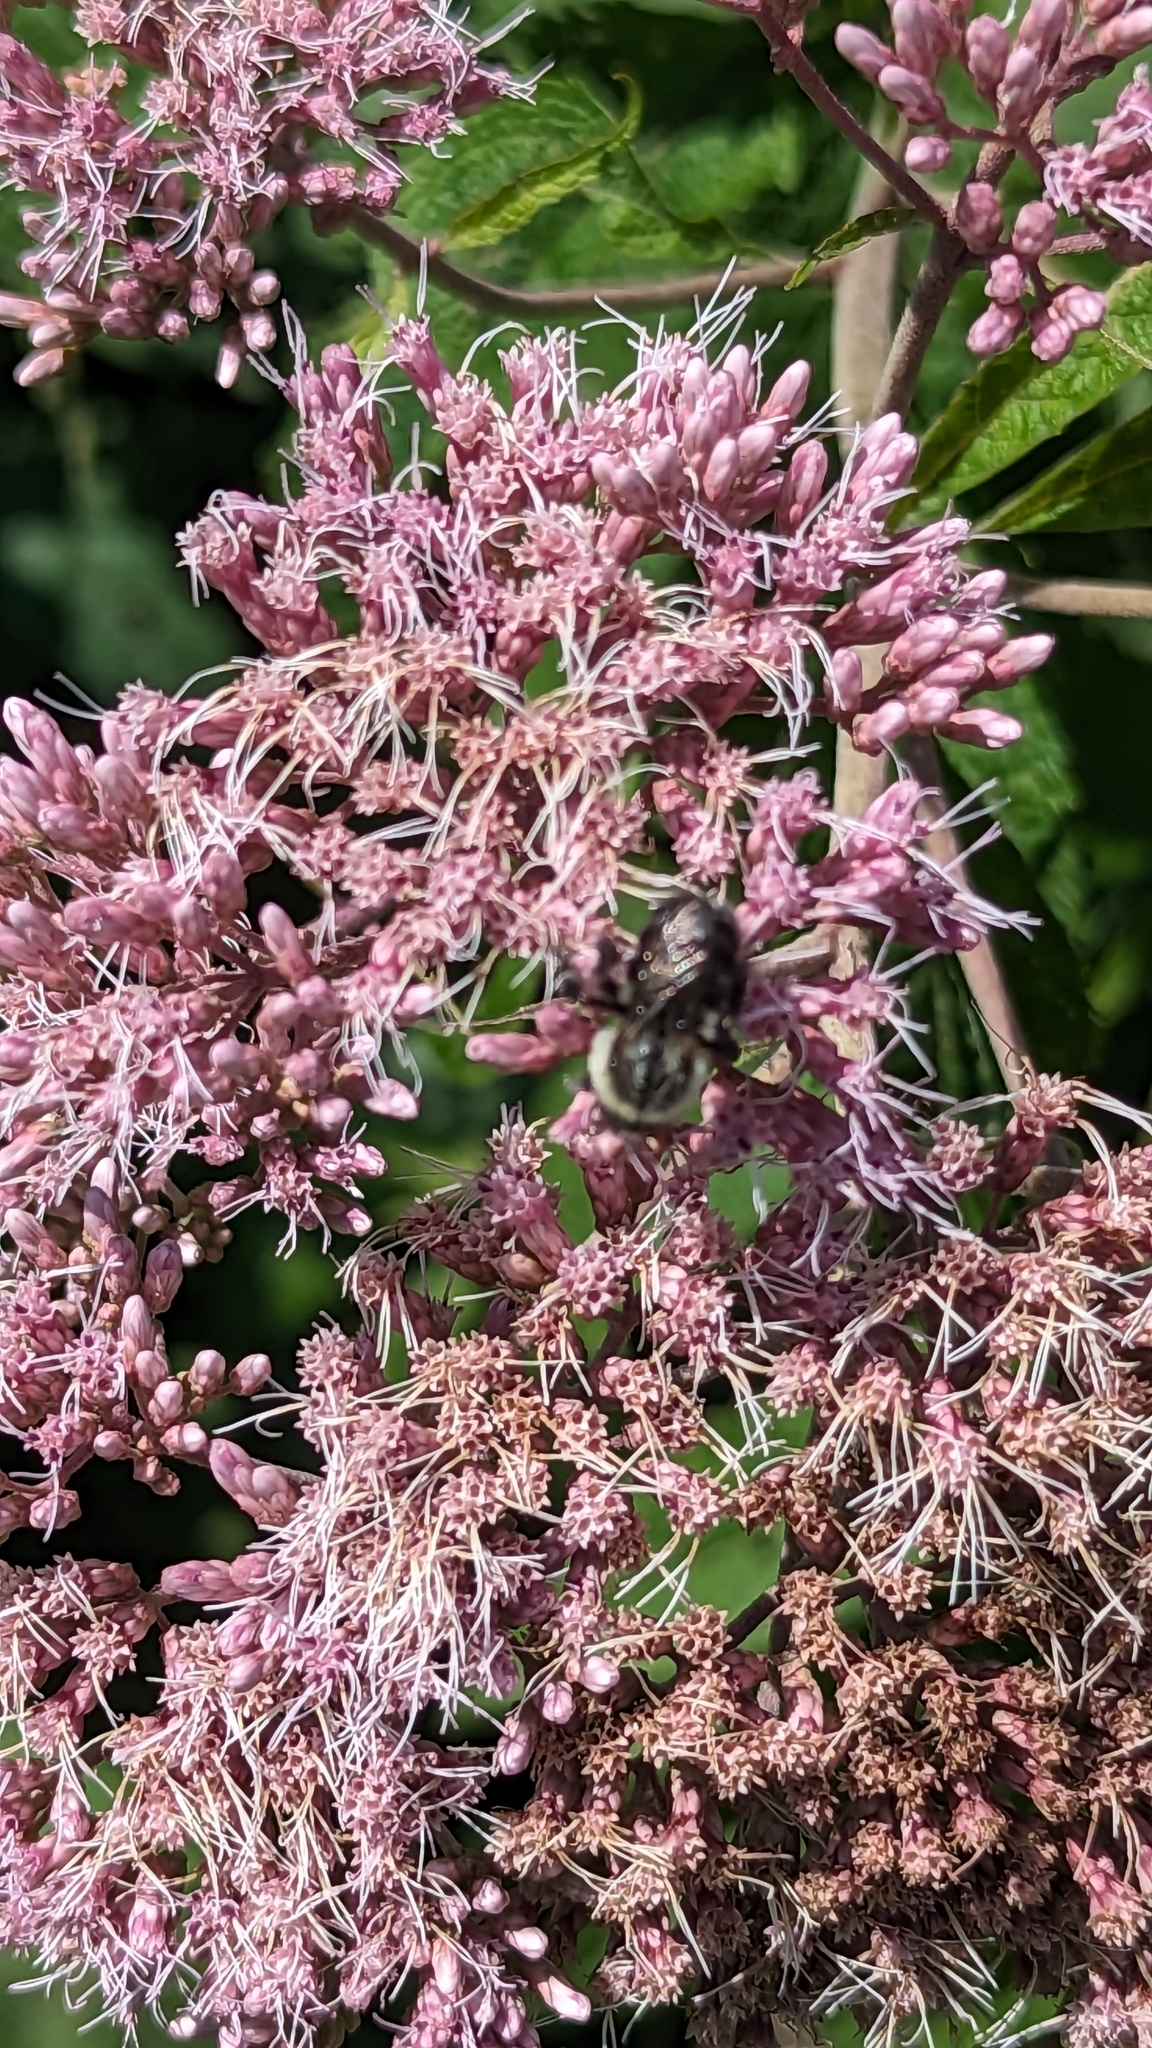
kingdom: Animalia
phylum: Arthropoda
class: Insecta
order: Hymenoptera
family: Apidae
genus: Bombus
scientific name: Bombus impatiens
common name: Common eastern bumble bee
